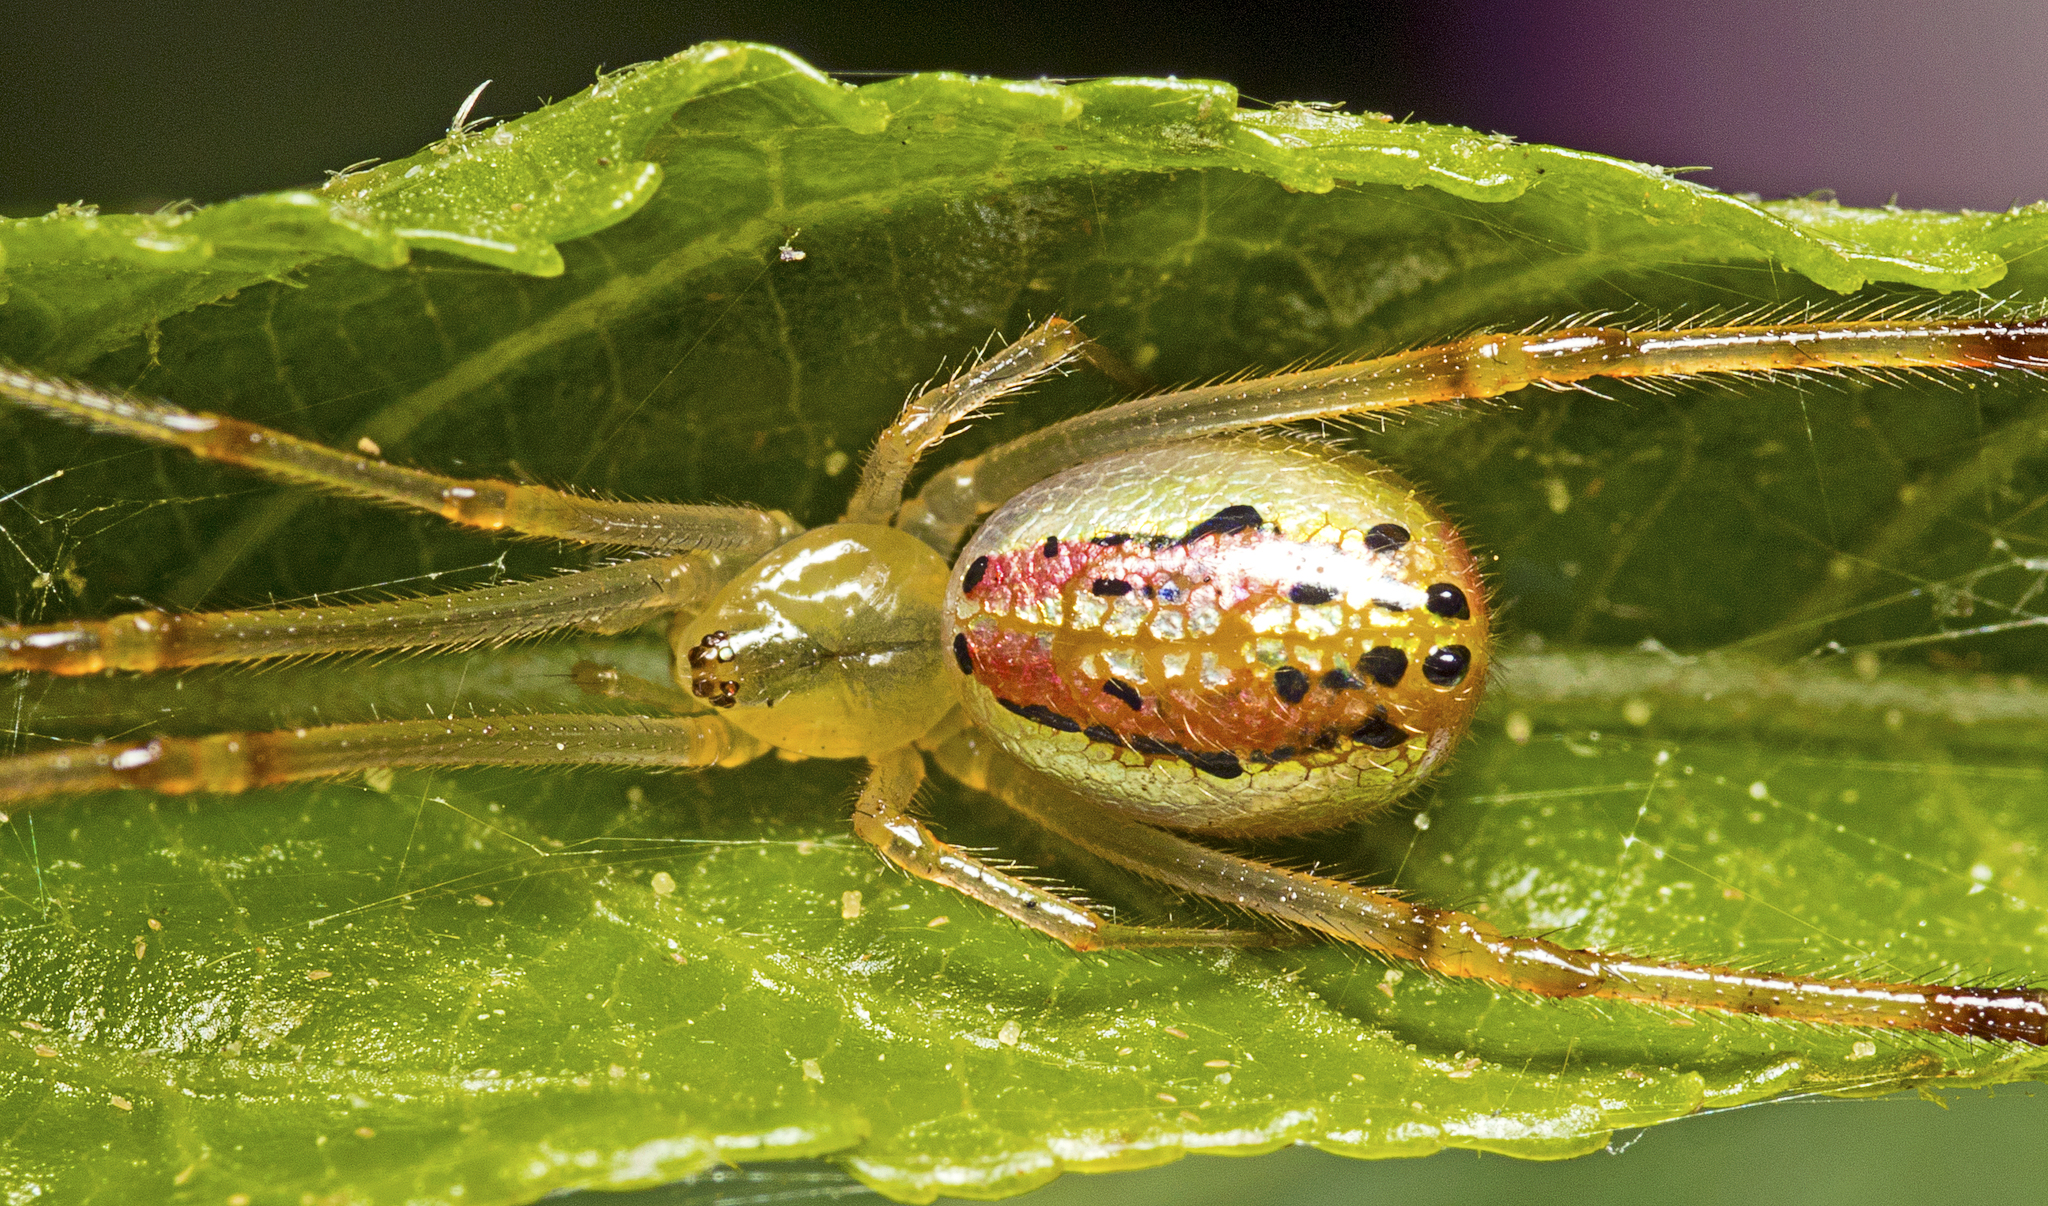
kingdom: Animalia
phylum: Arthropoda
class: Arachnida
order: Araneae
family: Theridiidae
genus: Thwaitesia
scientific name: Thwaitesia nigronodosa
